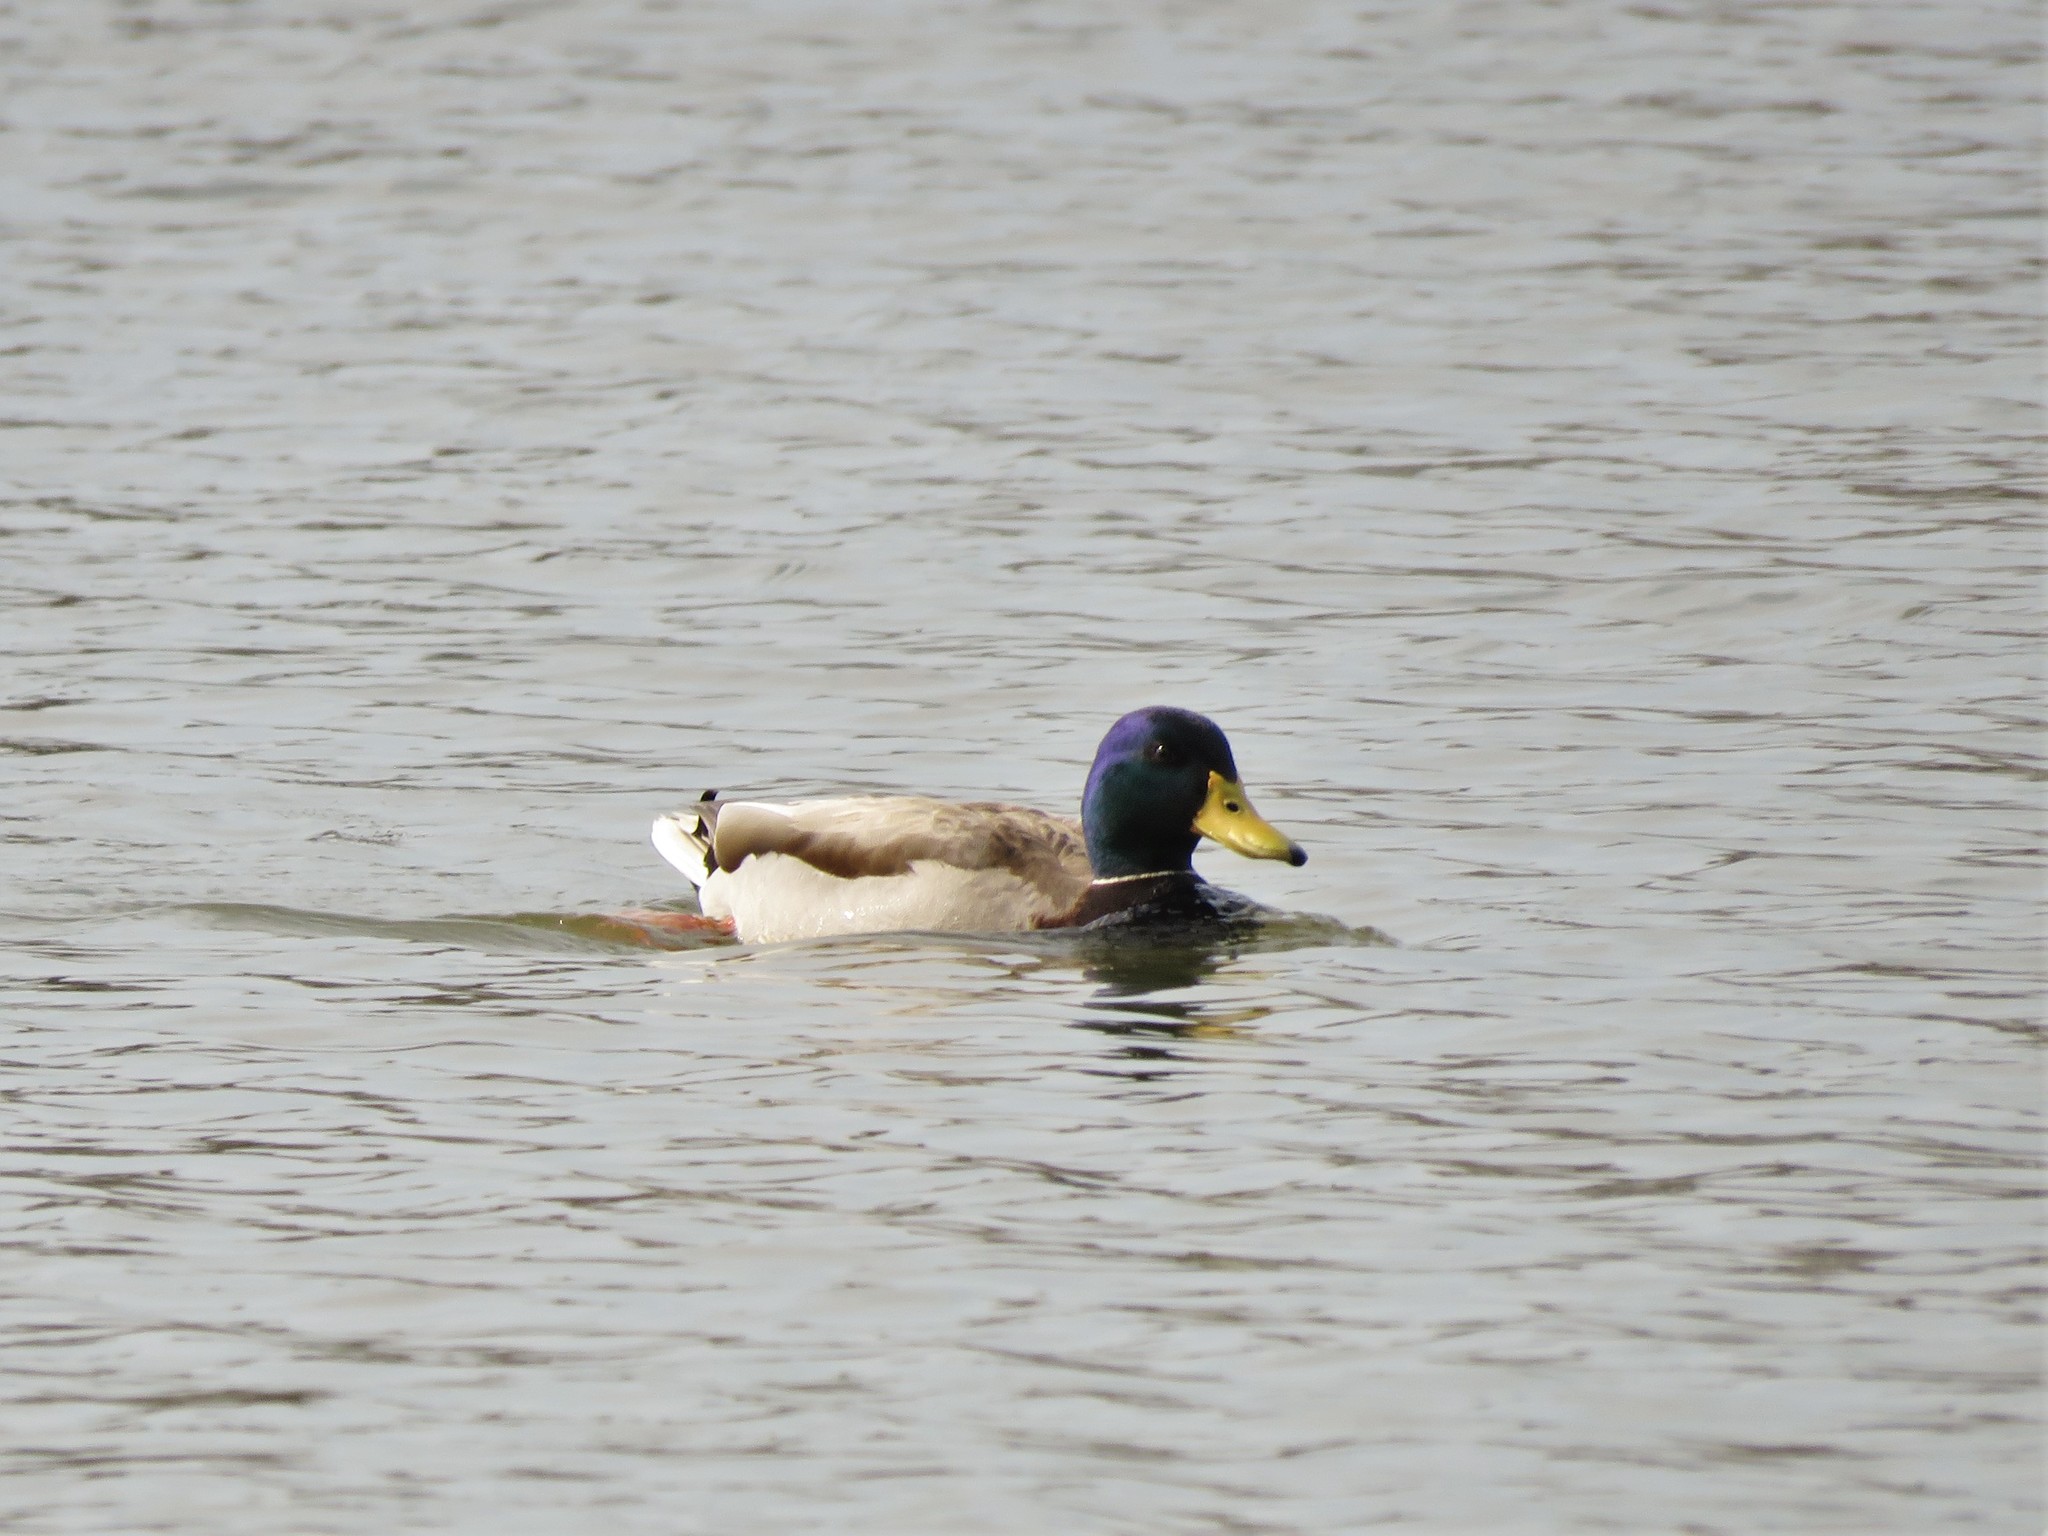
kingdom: Animalia
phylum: Chordata
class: Aves
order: Anseriformes
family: Anatidae
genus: Anas
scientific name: Anas platyrhynchos
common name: Mallard
